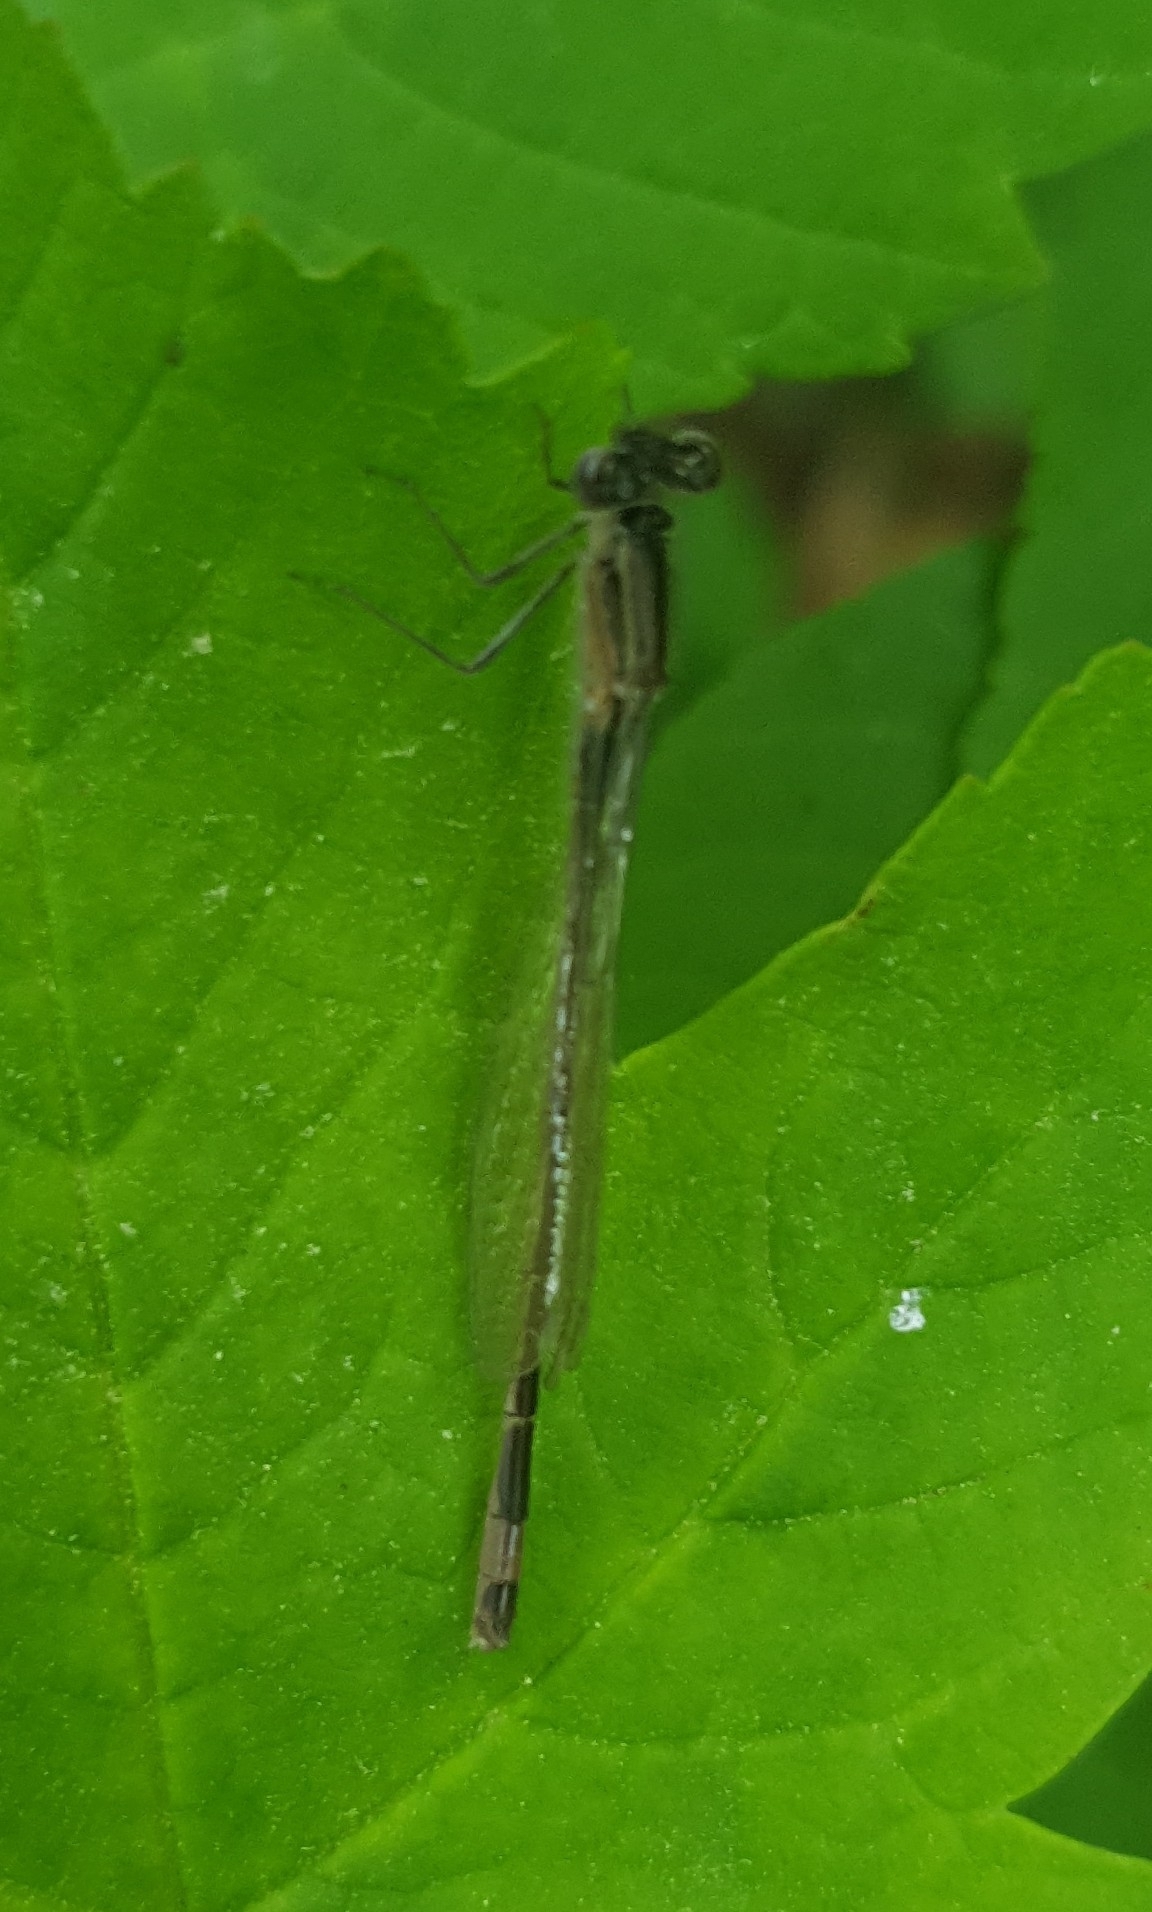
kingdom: Animalia
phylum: Arthropoda
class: Insecta
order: Odonata
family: Coenagrionidae
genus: Ischnura
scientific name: Ischnura elegans
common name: Blue-tailed damselfly
